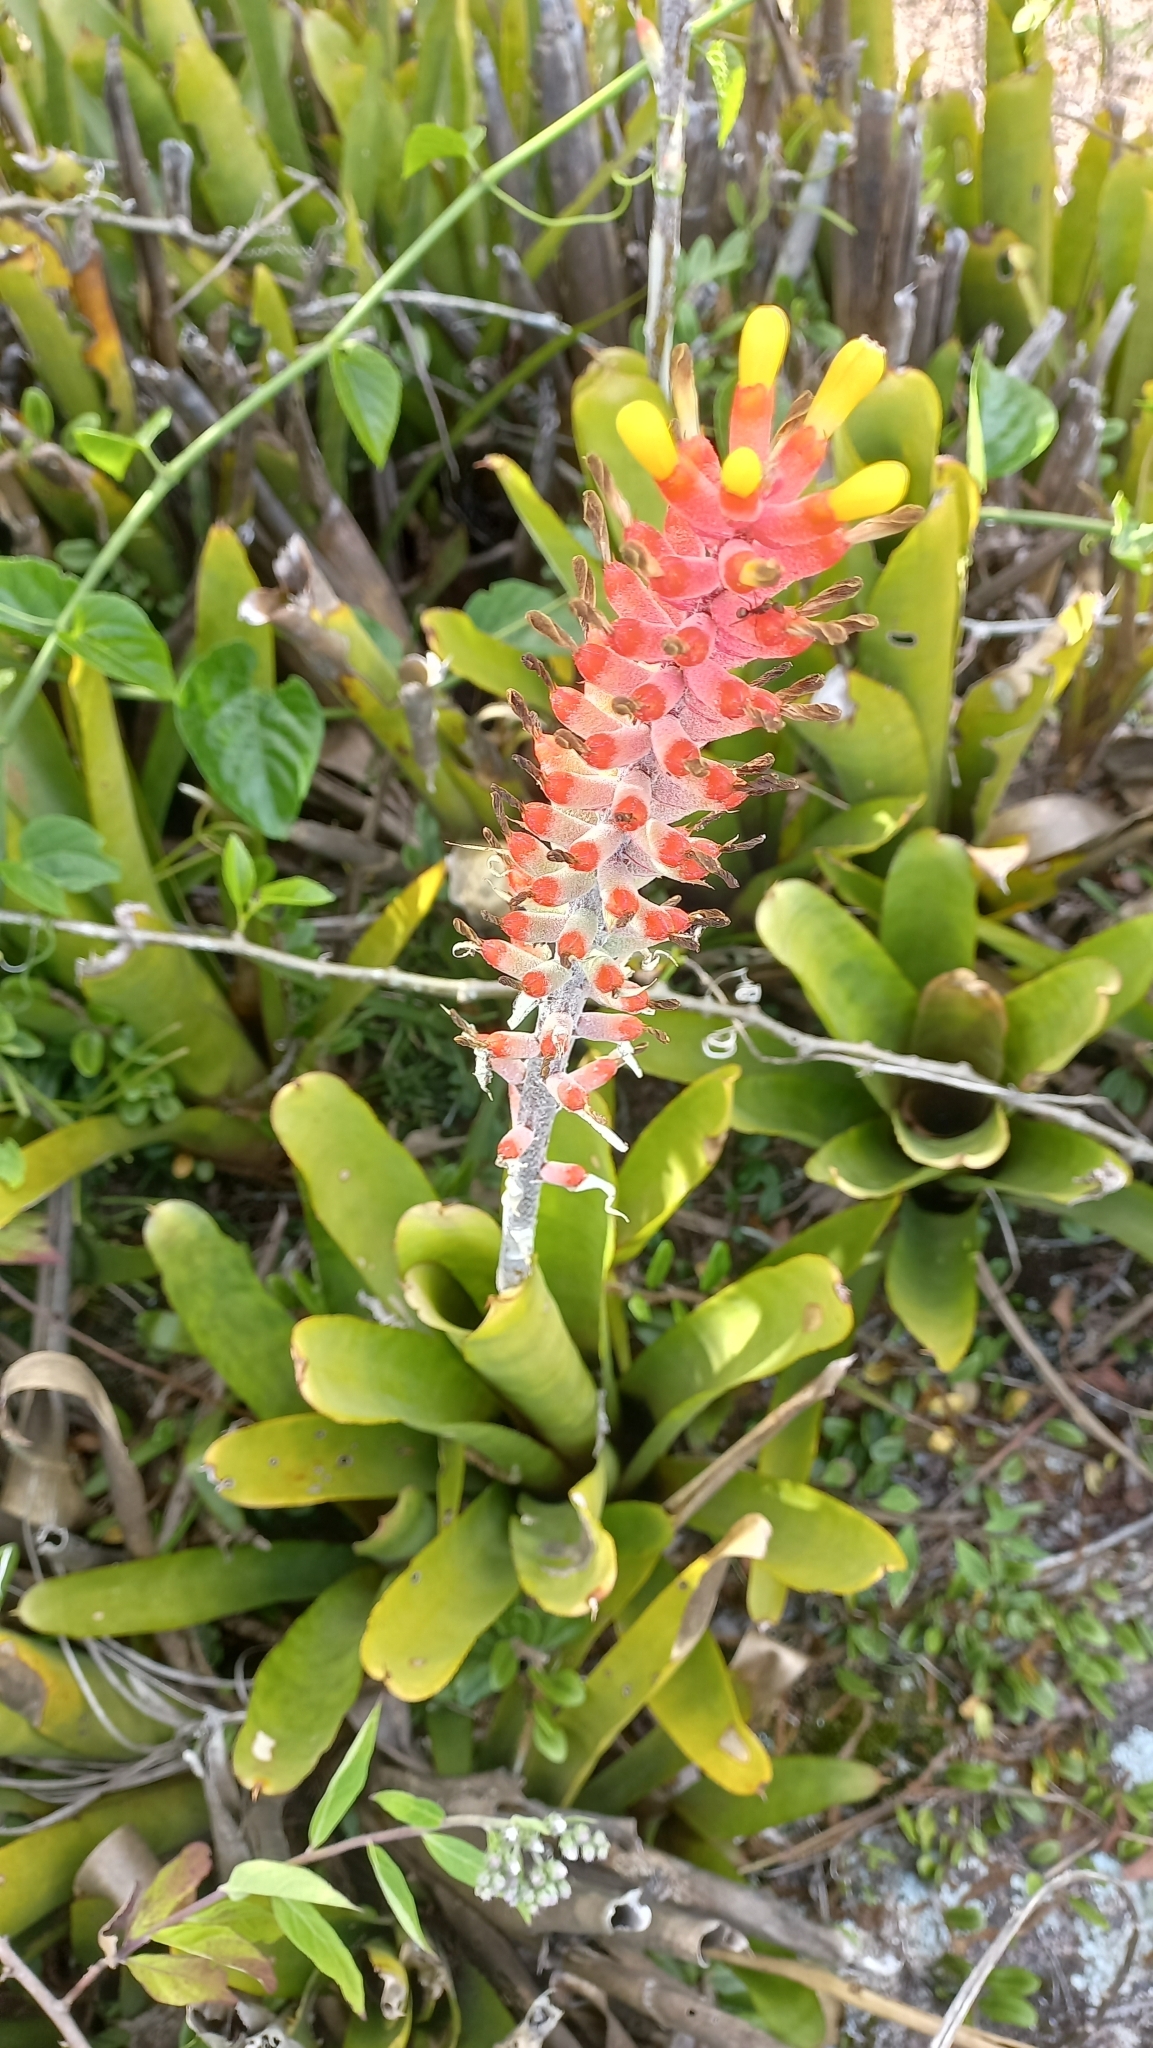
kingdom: Plantae
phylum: Tracheophyta
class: Liliopsida
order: Poales
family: Bromeliaceae
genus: Aechmea
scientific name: Aechmea kertesziae
